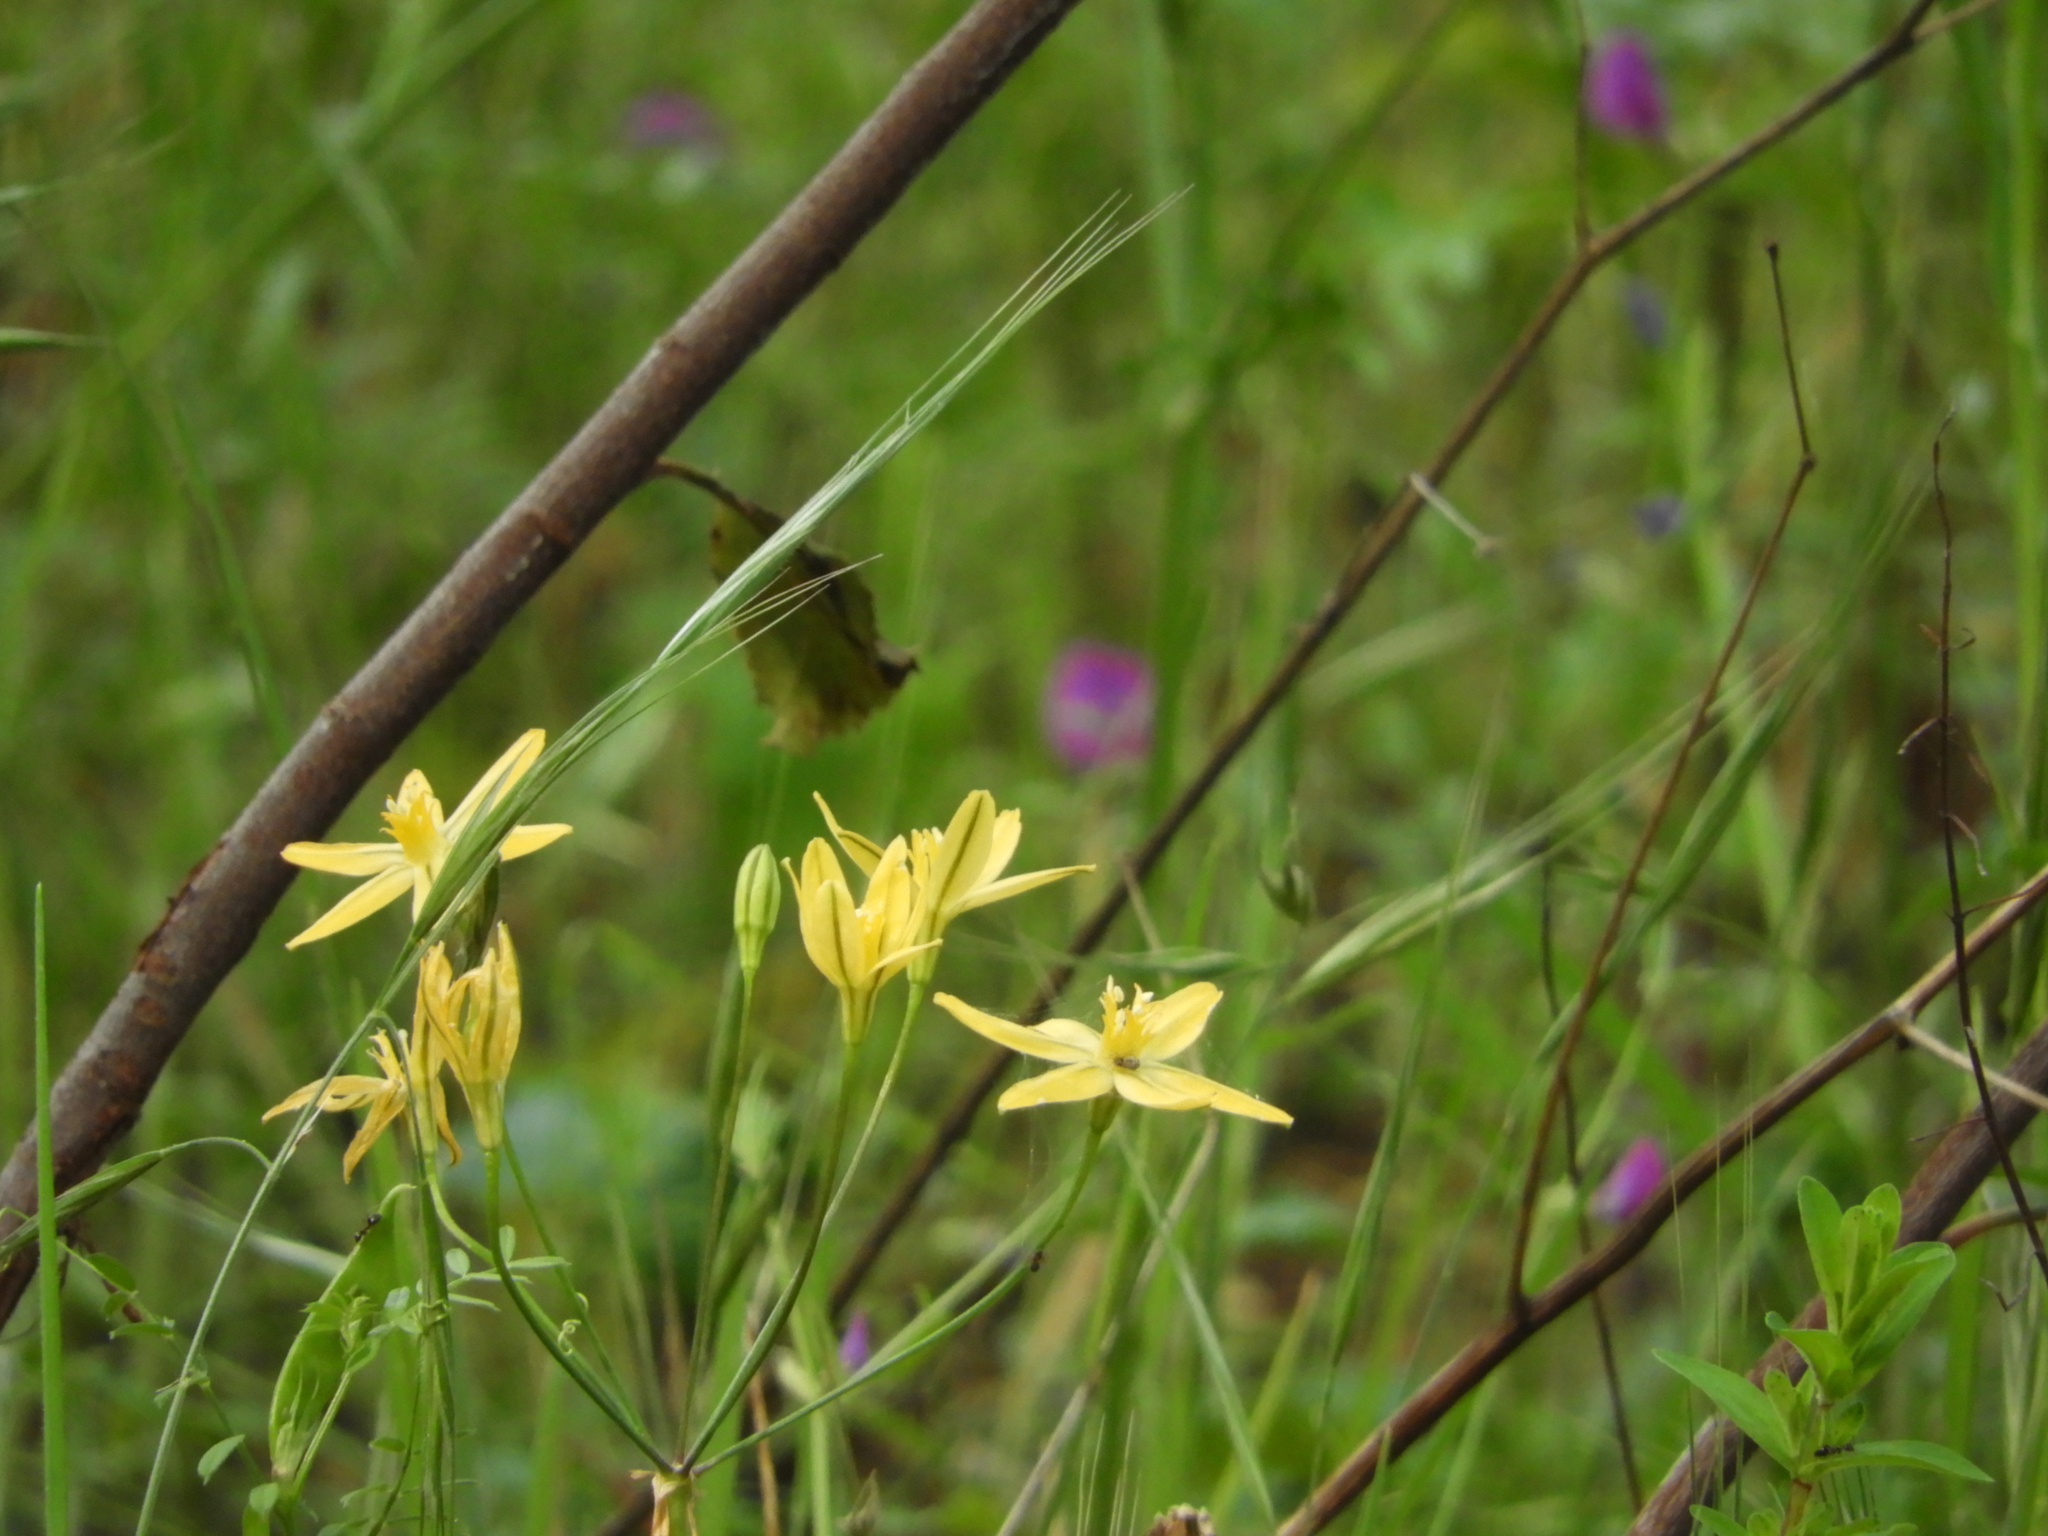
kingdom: Plantae
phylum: Tracheophyta
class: Liliopsida
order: Asparagales
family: Asparagaceae
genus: Triteleia
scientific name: Triteleia ixioides
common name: Yellow-brodiaea
